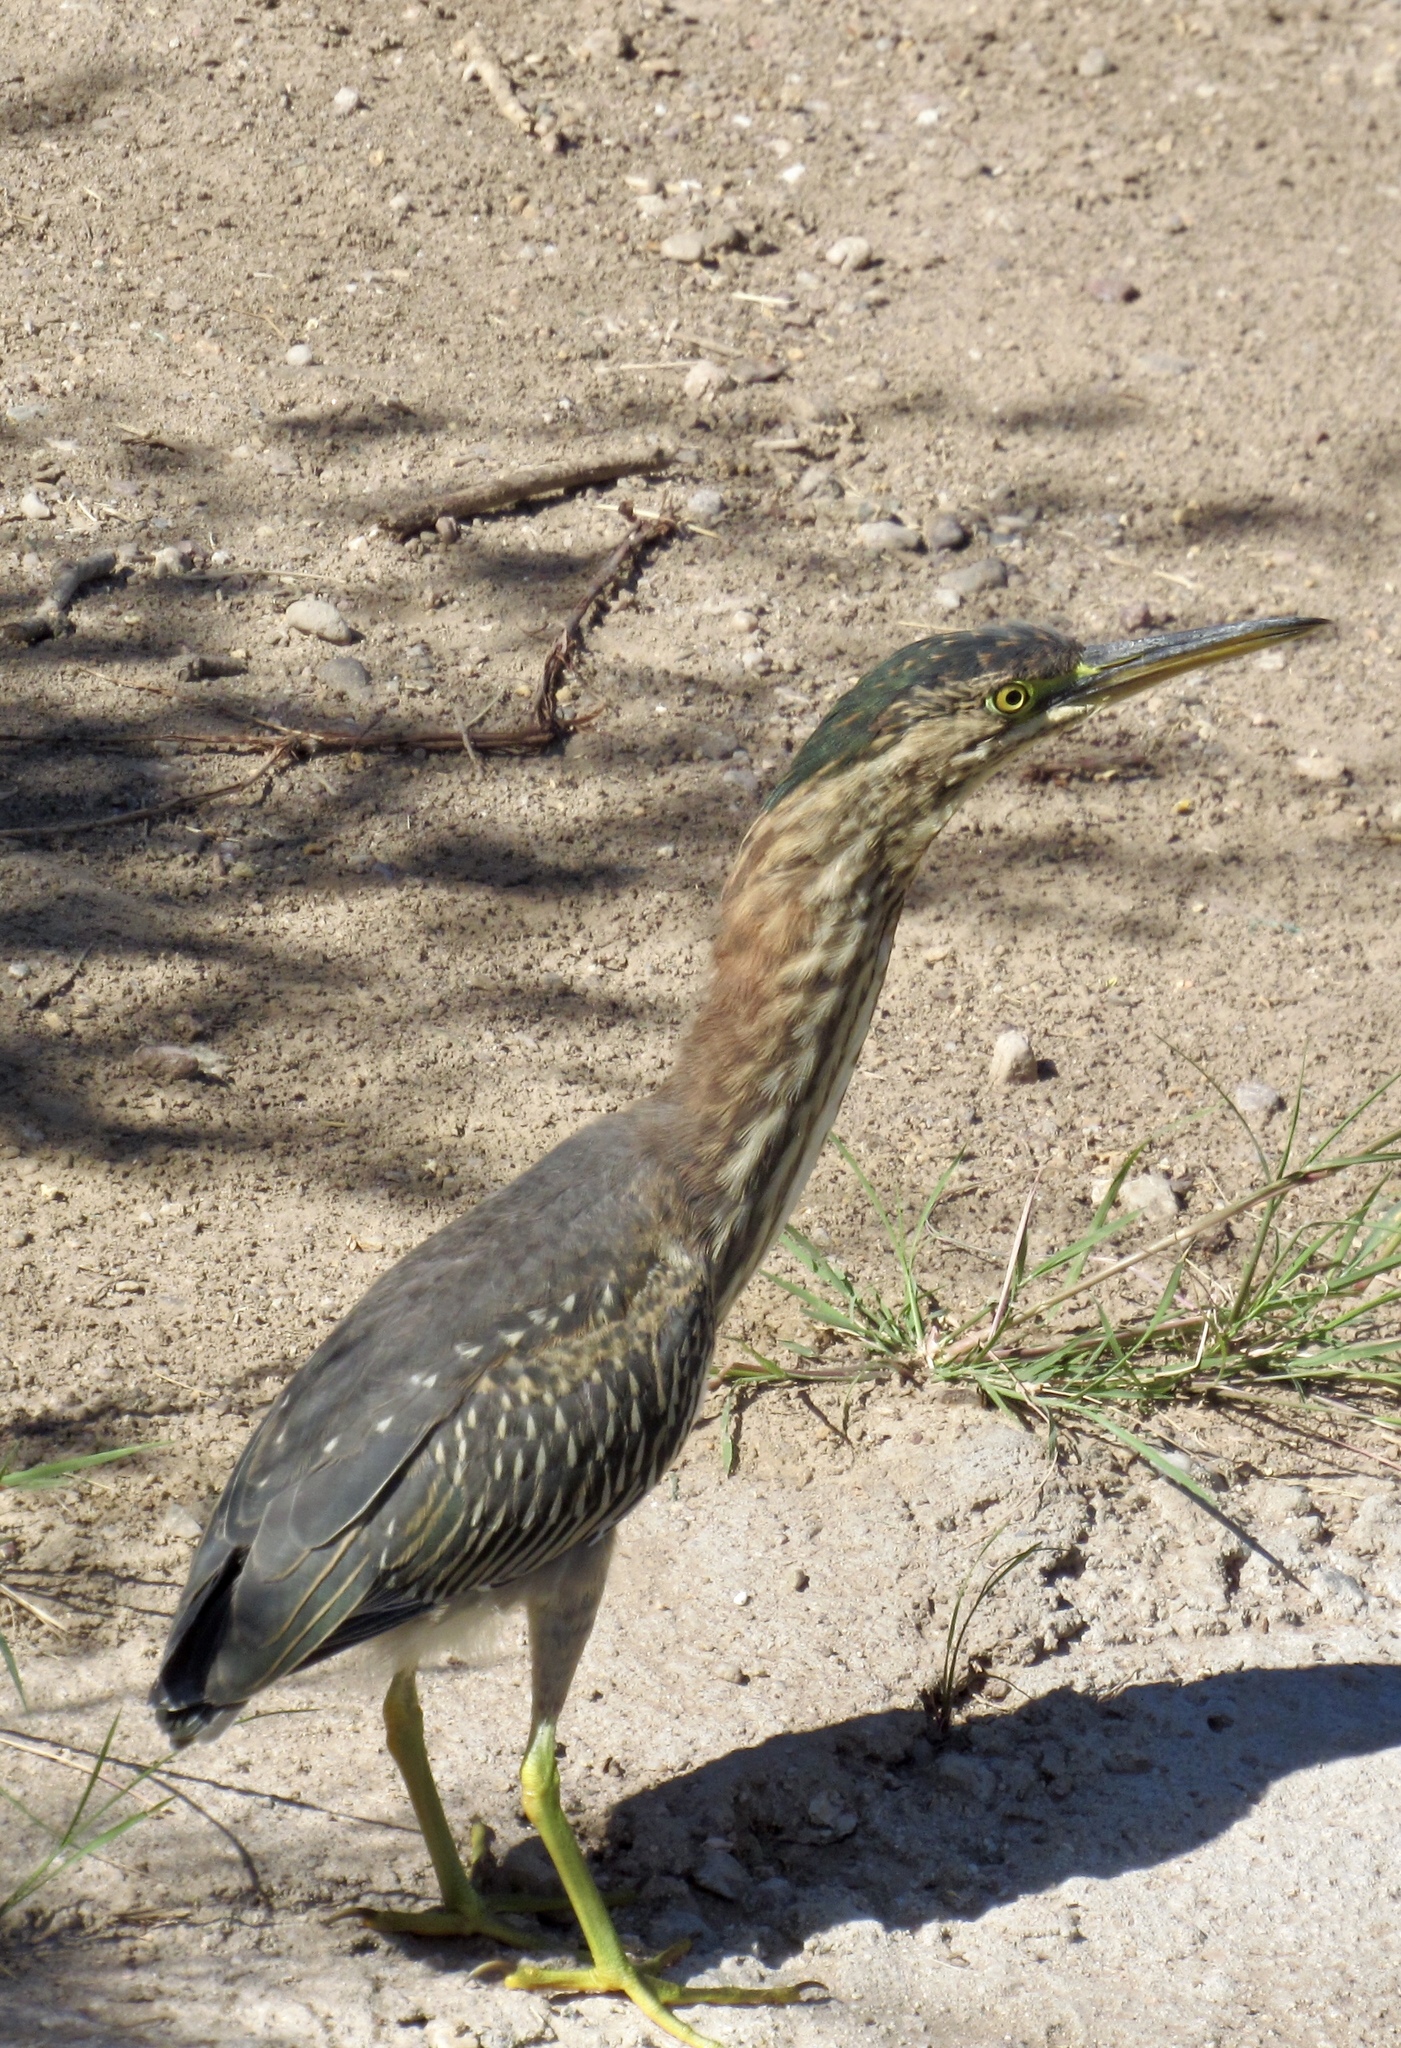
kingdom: Animalia
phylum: Chordata
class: Aves
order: Pelecaniformes
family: Ardeidae
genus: Butorides
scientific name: Butorides virescens
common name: Green heron
